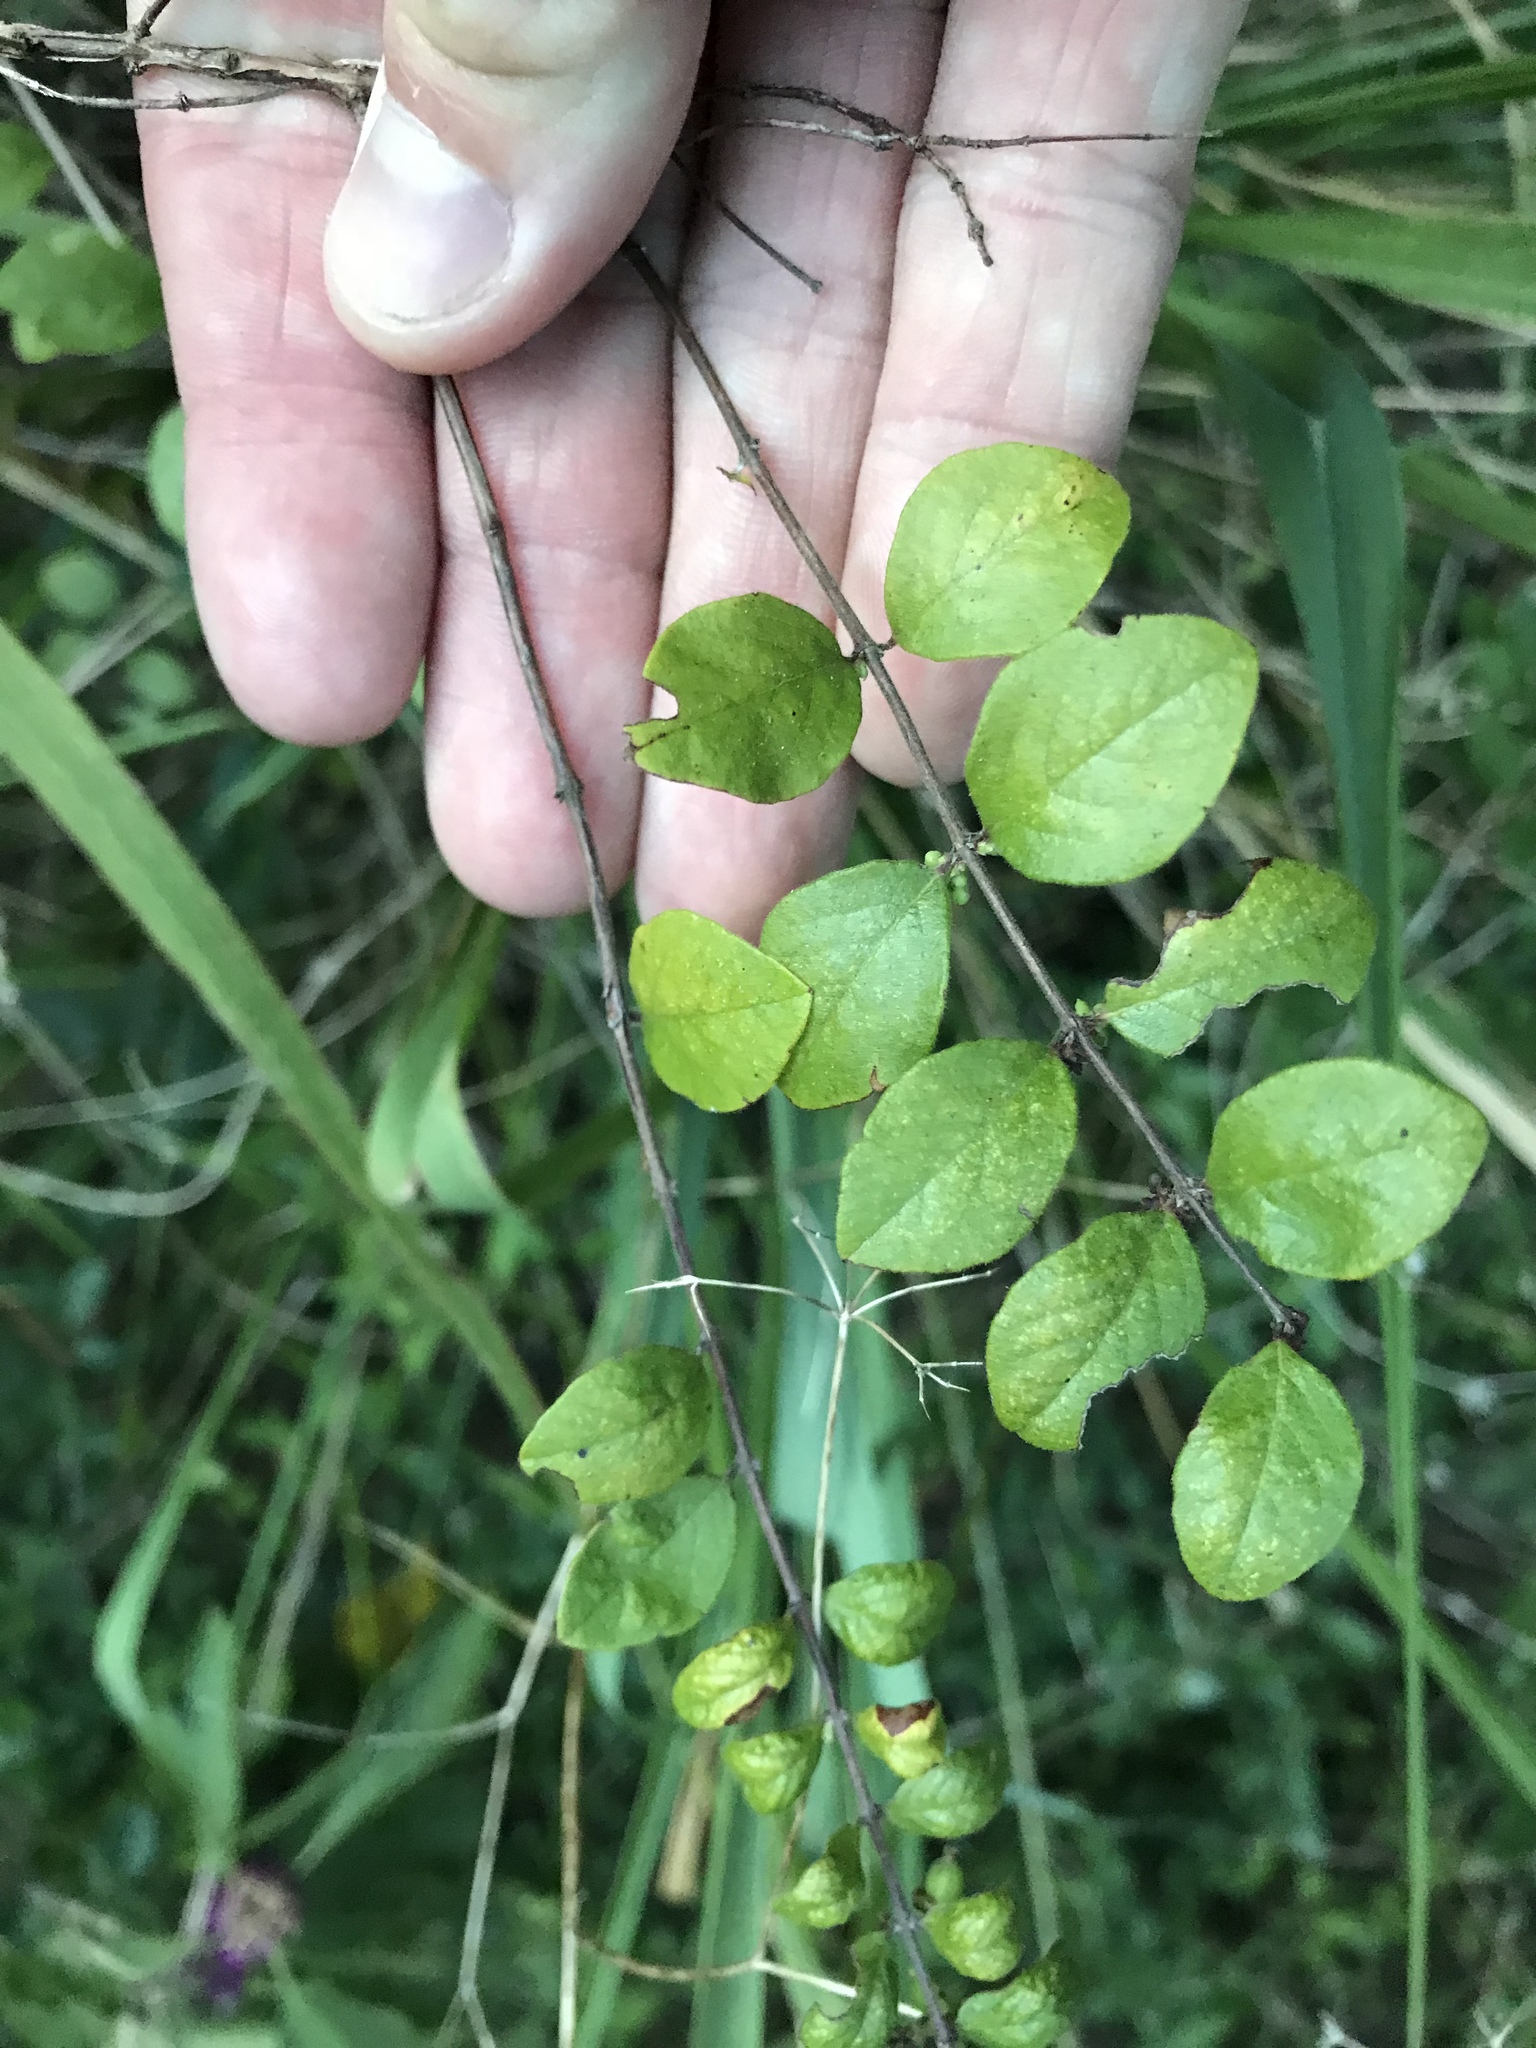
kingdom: Plantae
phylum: Tracheophyta
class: Magnoliopsida
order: Dipsacales
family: Caprifoliaceae
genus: Symphoricarpos
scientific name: Symphoricarpos orbiculatus
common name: Coralberry
